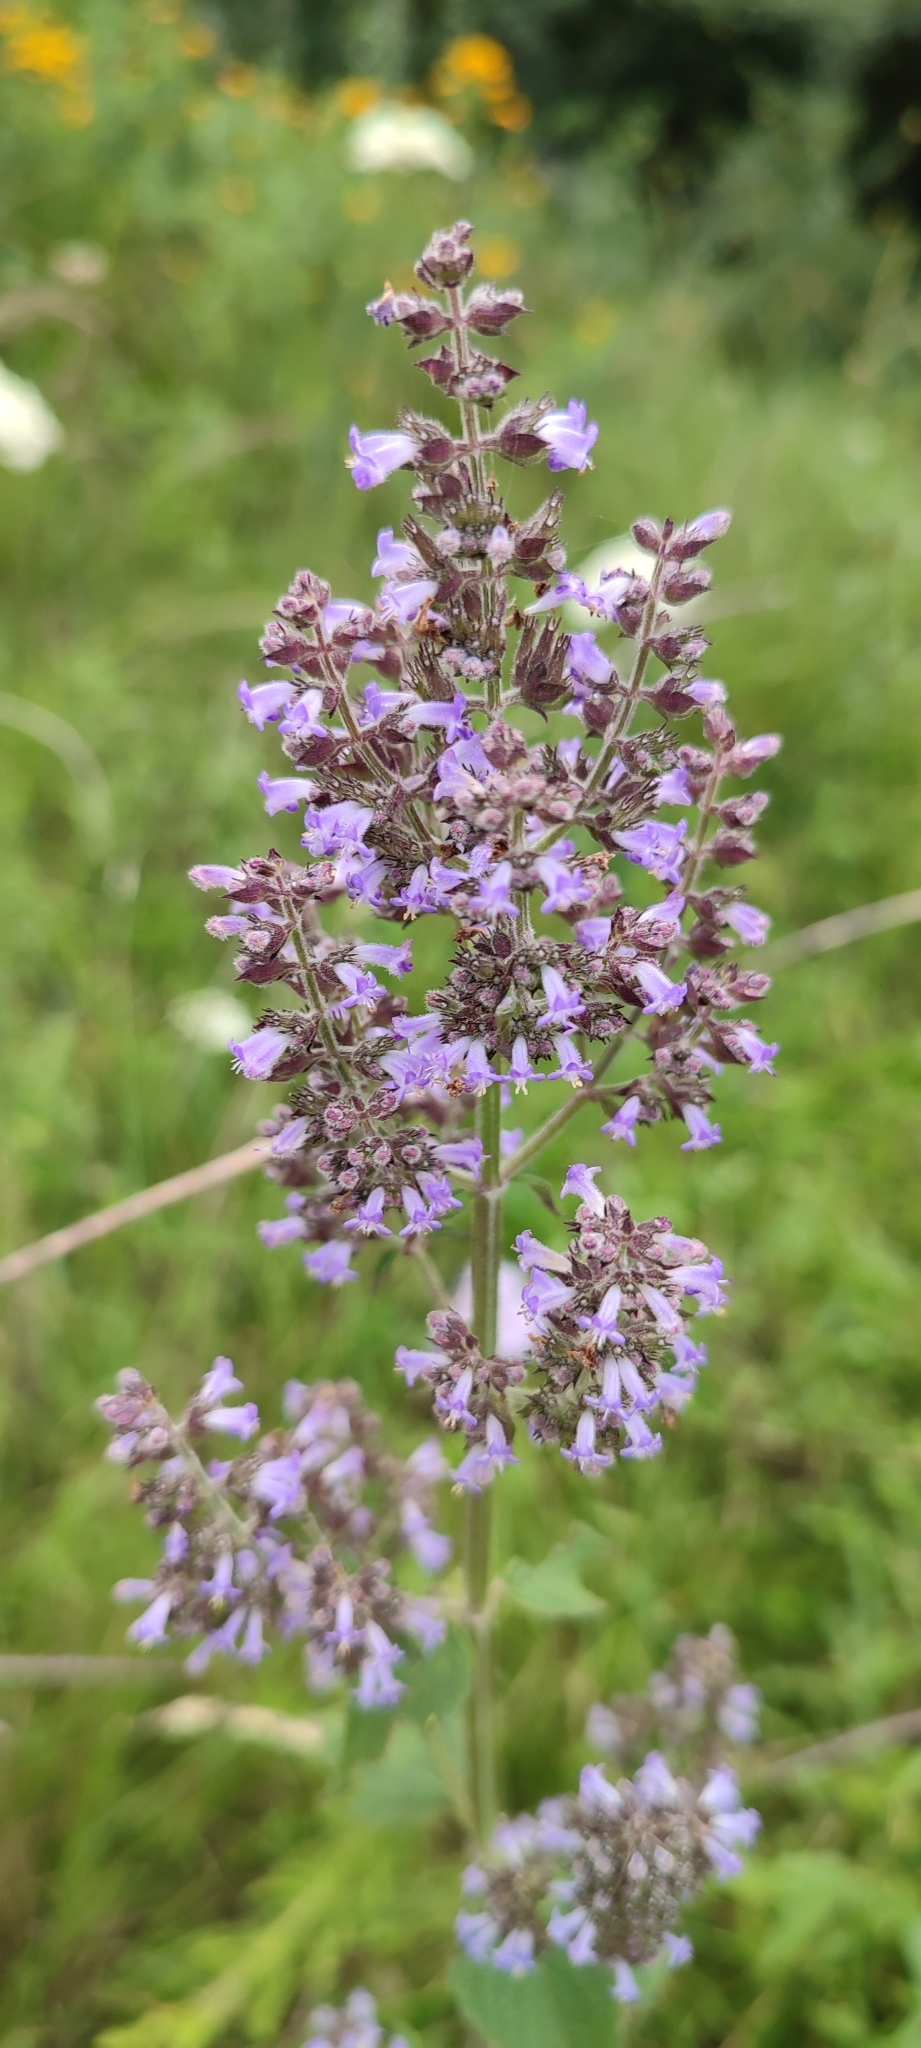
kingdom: Plantae
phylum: Tracheophyta
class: Magnoliopsida
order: Lamiales
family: Lamiaceae
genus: Cantinoa
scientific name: Cantinoa mutabilis
